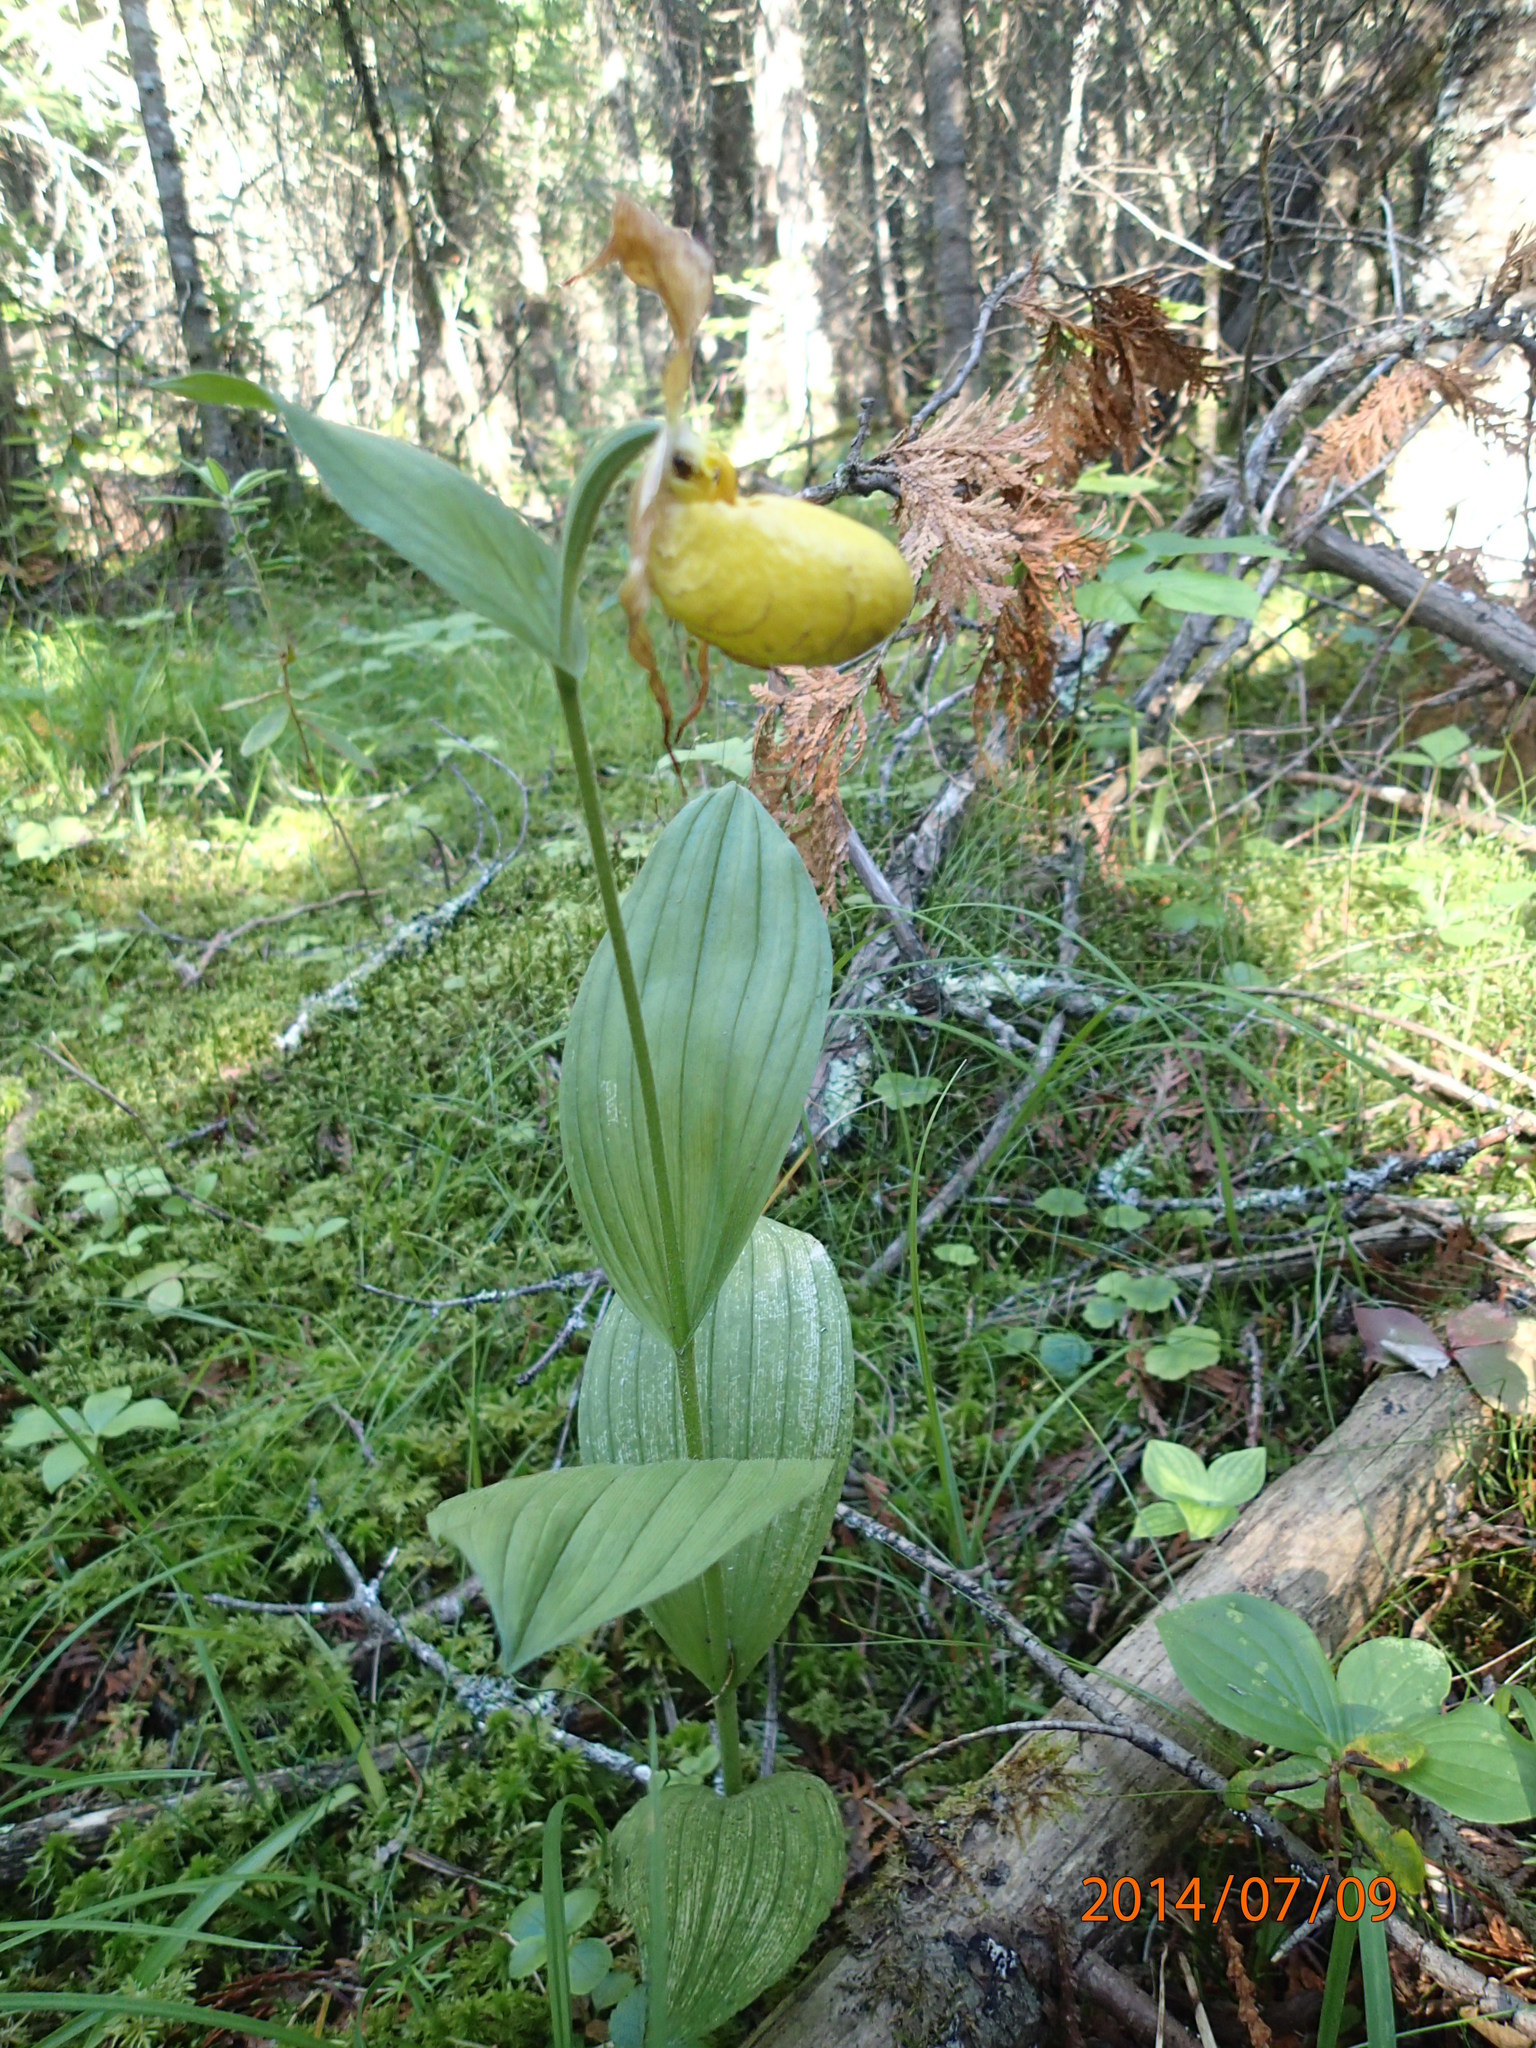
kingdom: Plantae
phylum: Tracheophyta
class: Liliopsida
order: Asparagales
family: Orchidaceae
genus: Cypripedium
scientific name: Cypripedium parviflorum
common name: American yellow lady's-slipper
